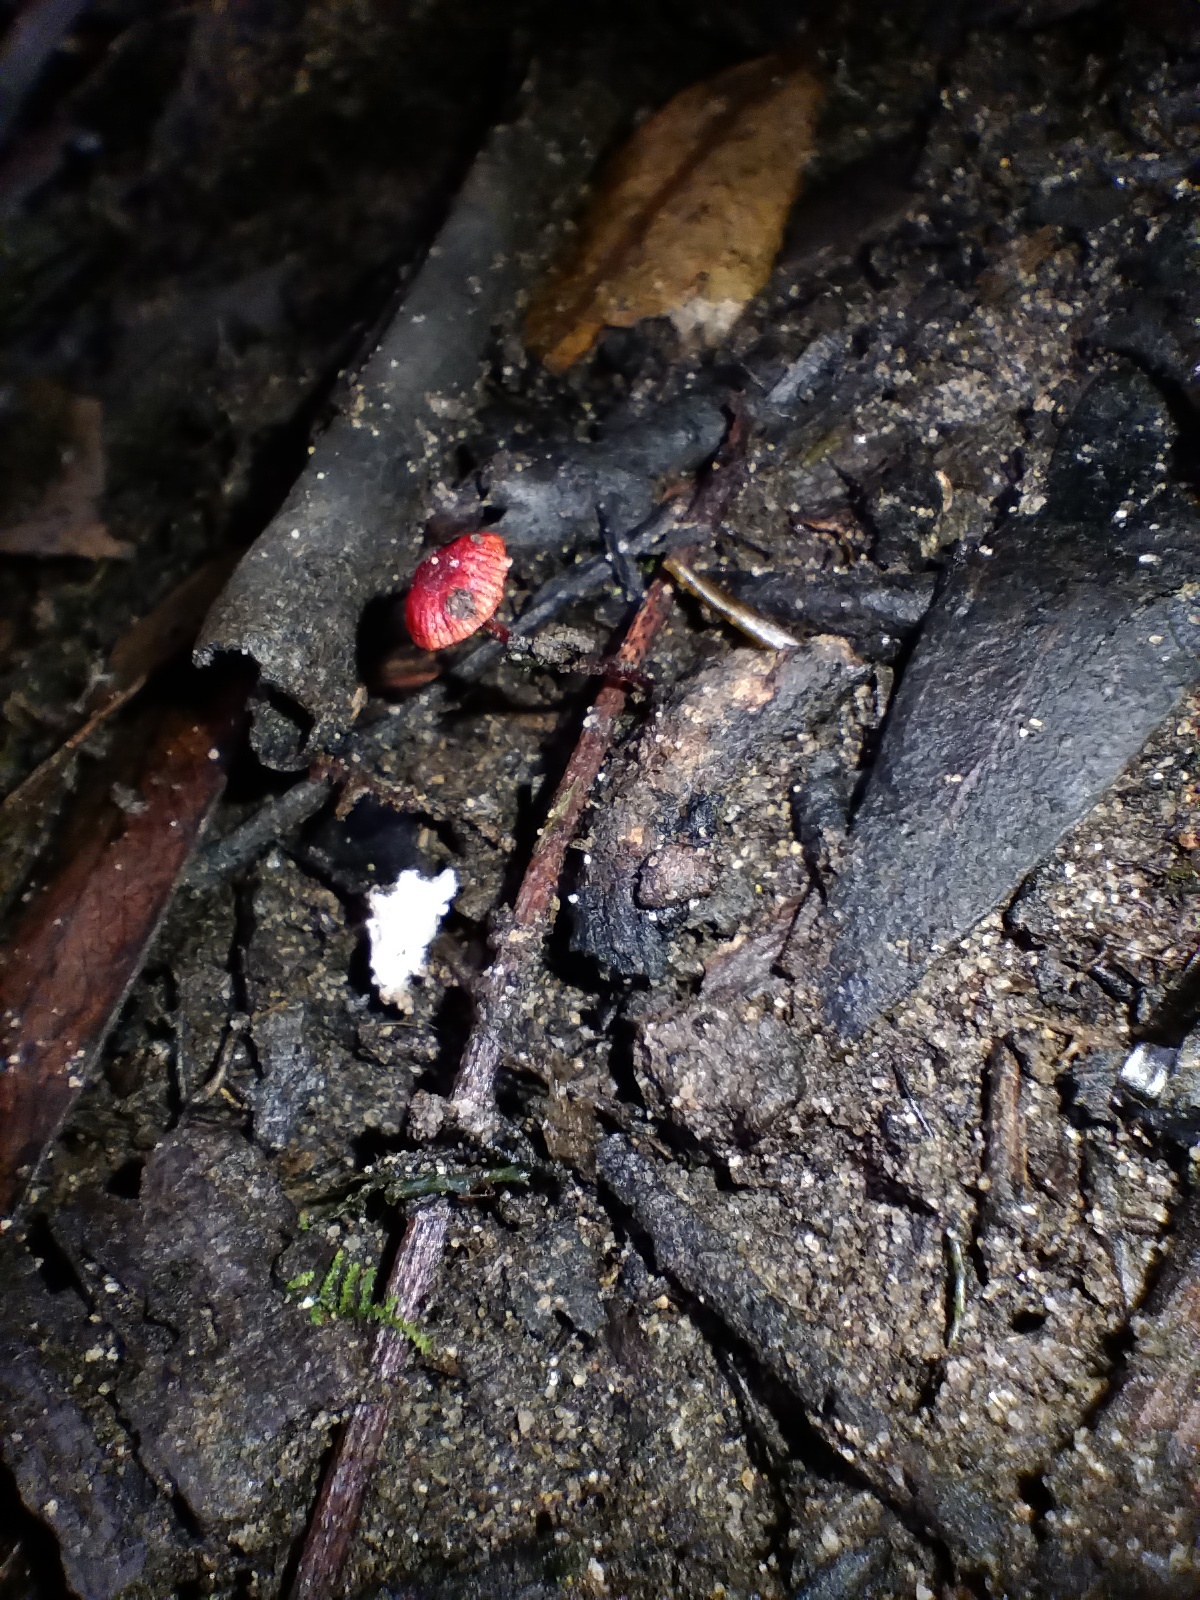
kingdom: Fungi
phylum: Basidiomycota
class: Agaricomycetes
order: Agaricales
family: Mycenaceae
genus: Cruentomycena
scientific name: Cruentomycena viscidocruenta
